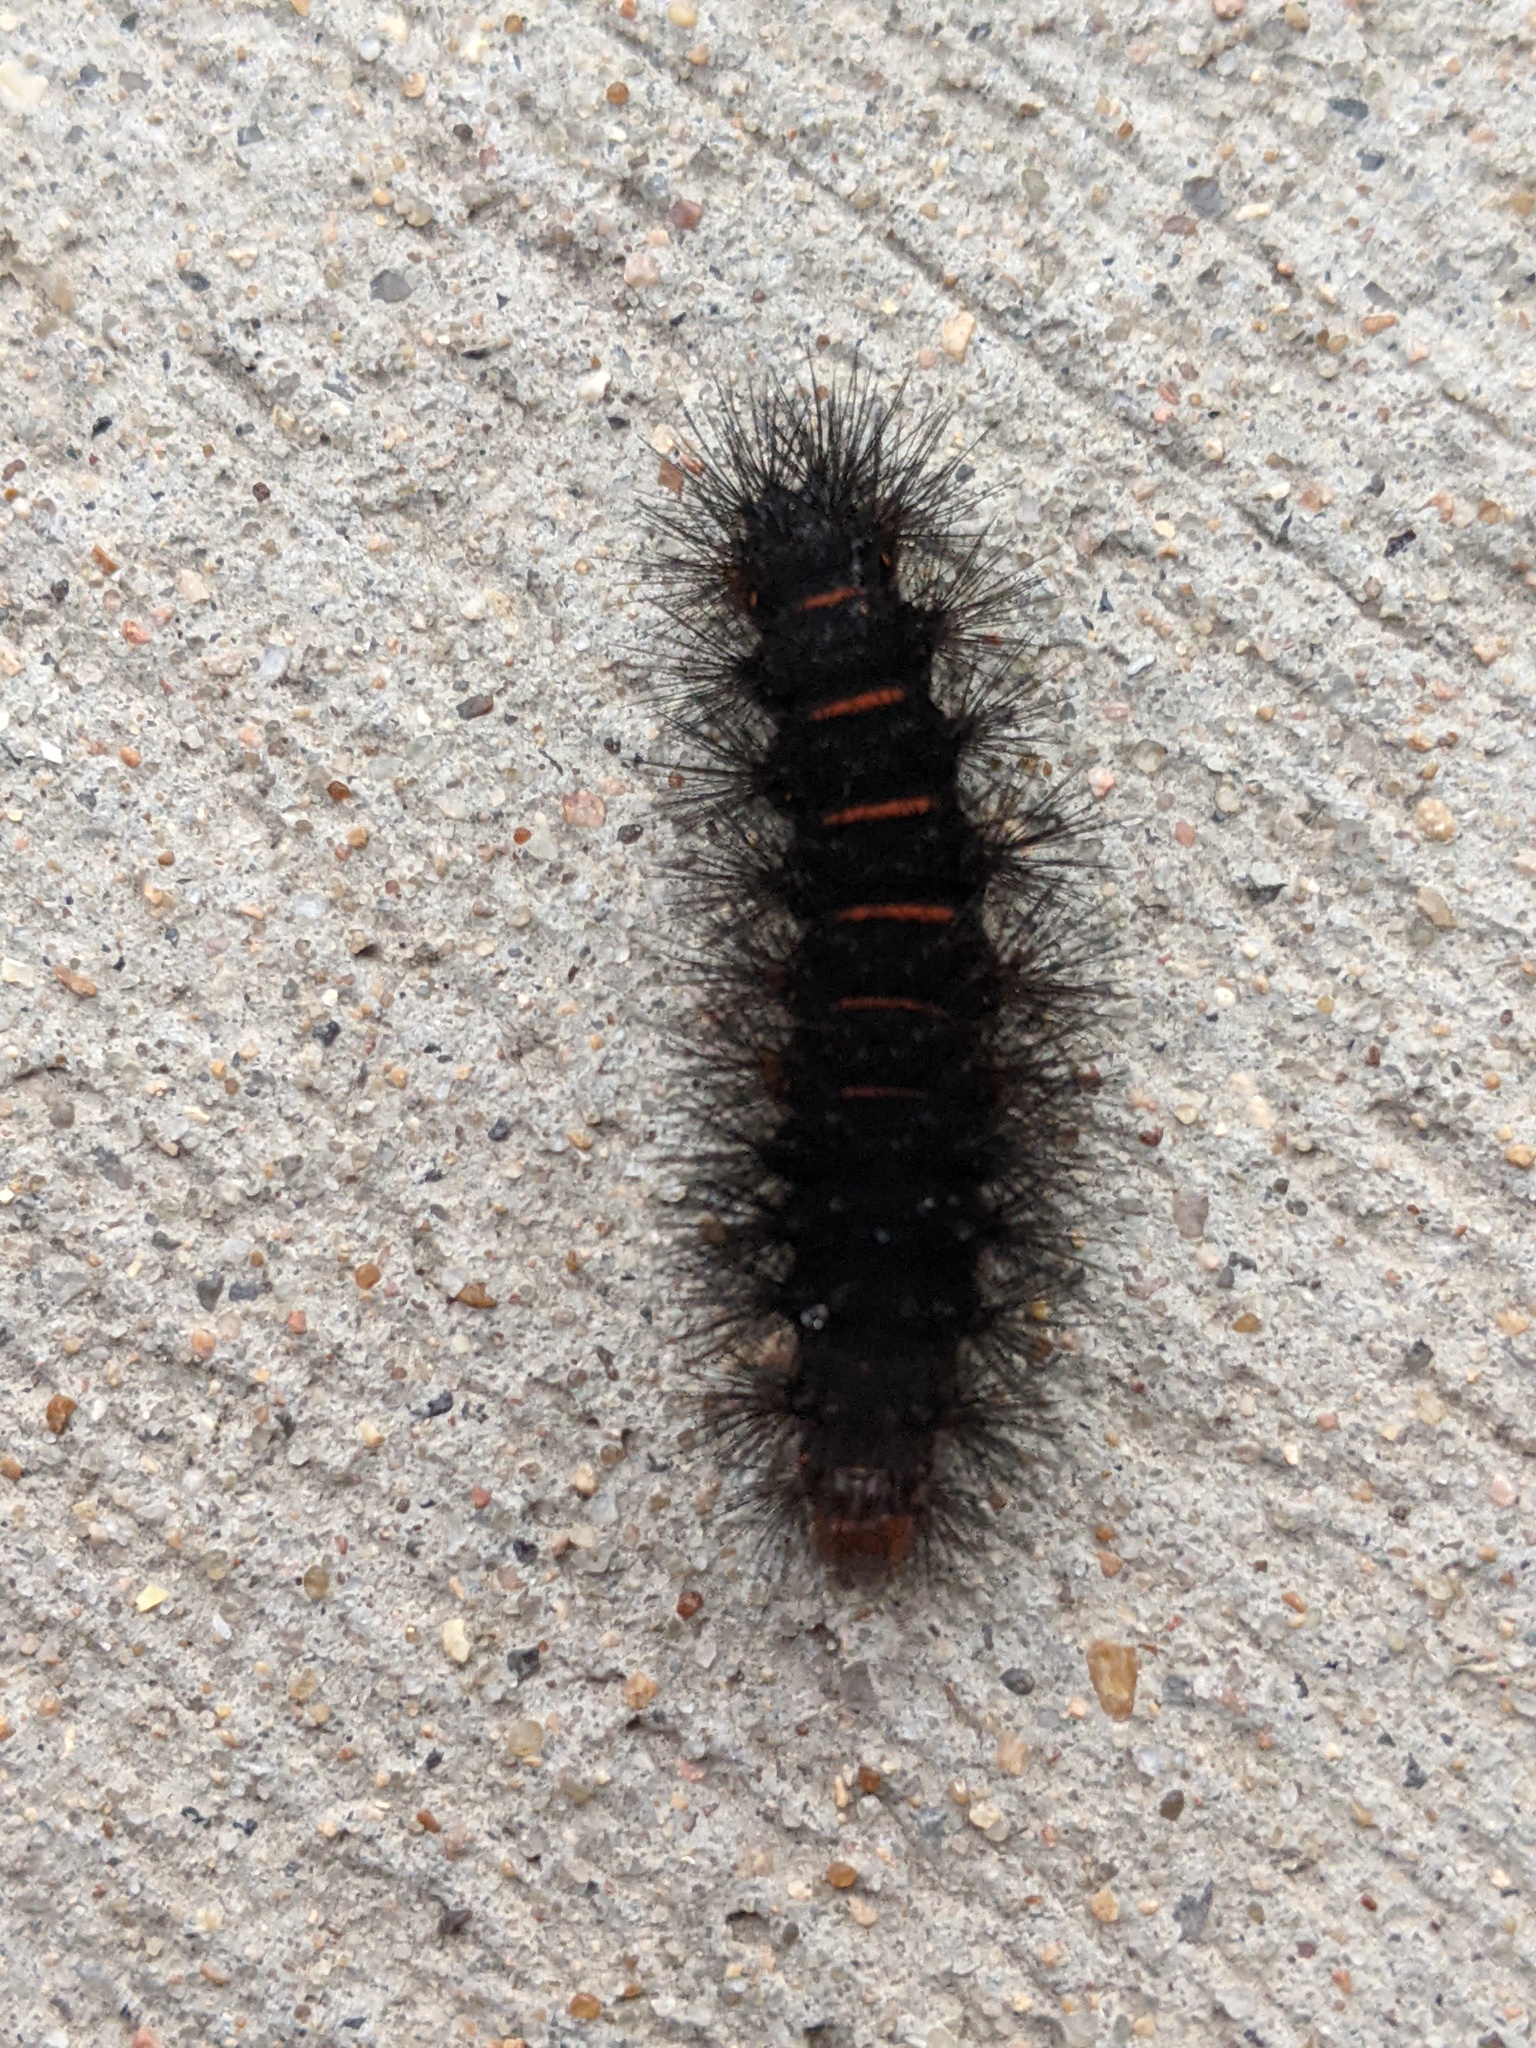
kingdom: Animalia
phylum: Arthropoda
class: Insecta
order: Lepidoptera
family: Erebidae
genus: Hypercompe
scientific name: Hypercompe scribonia
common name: Giant leopard moth
